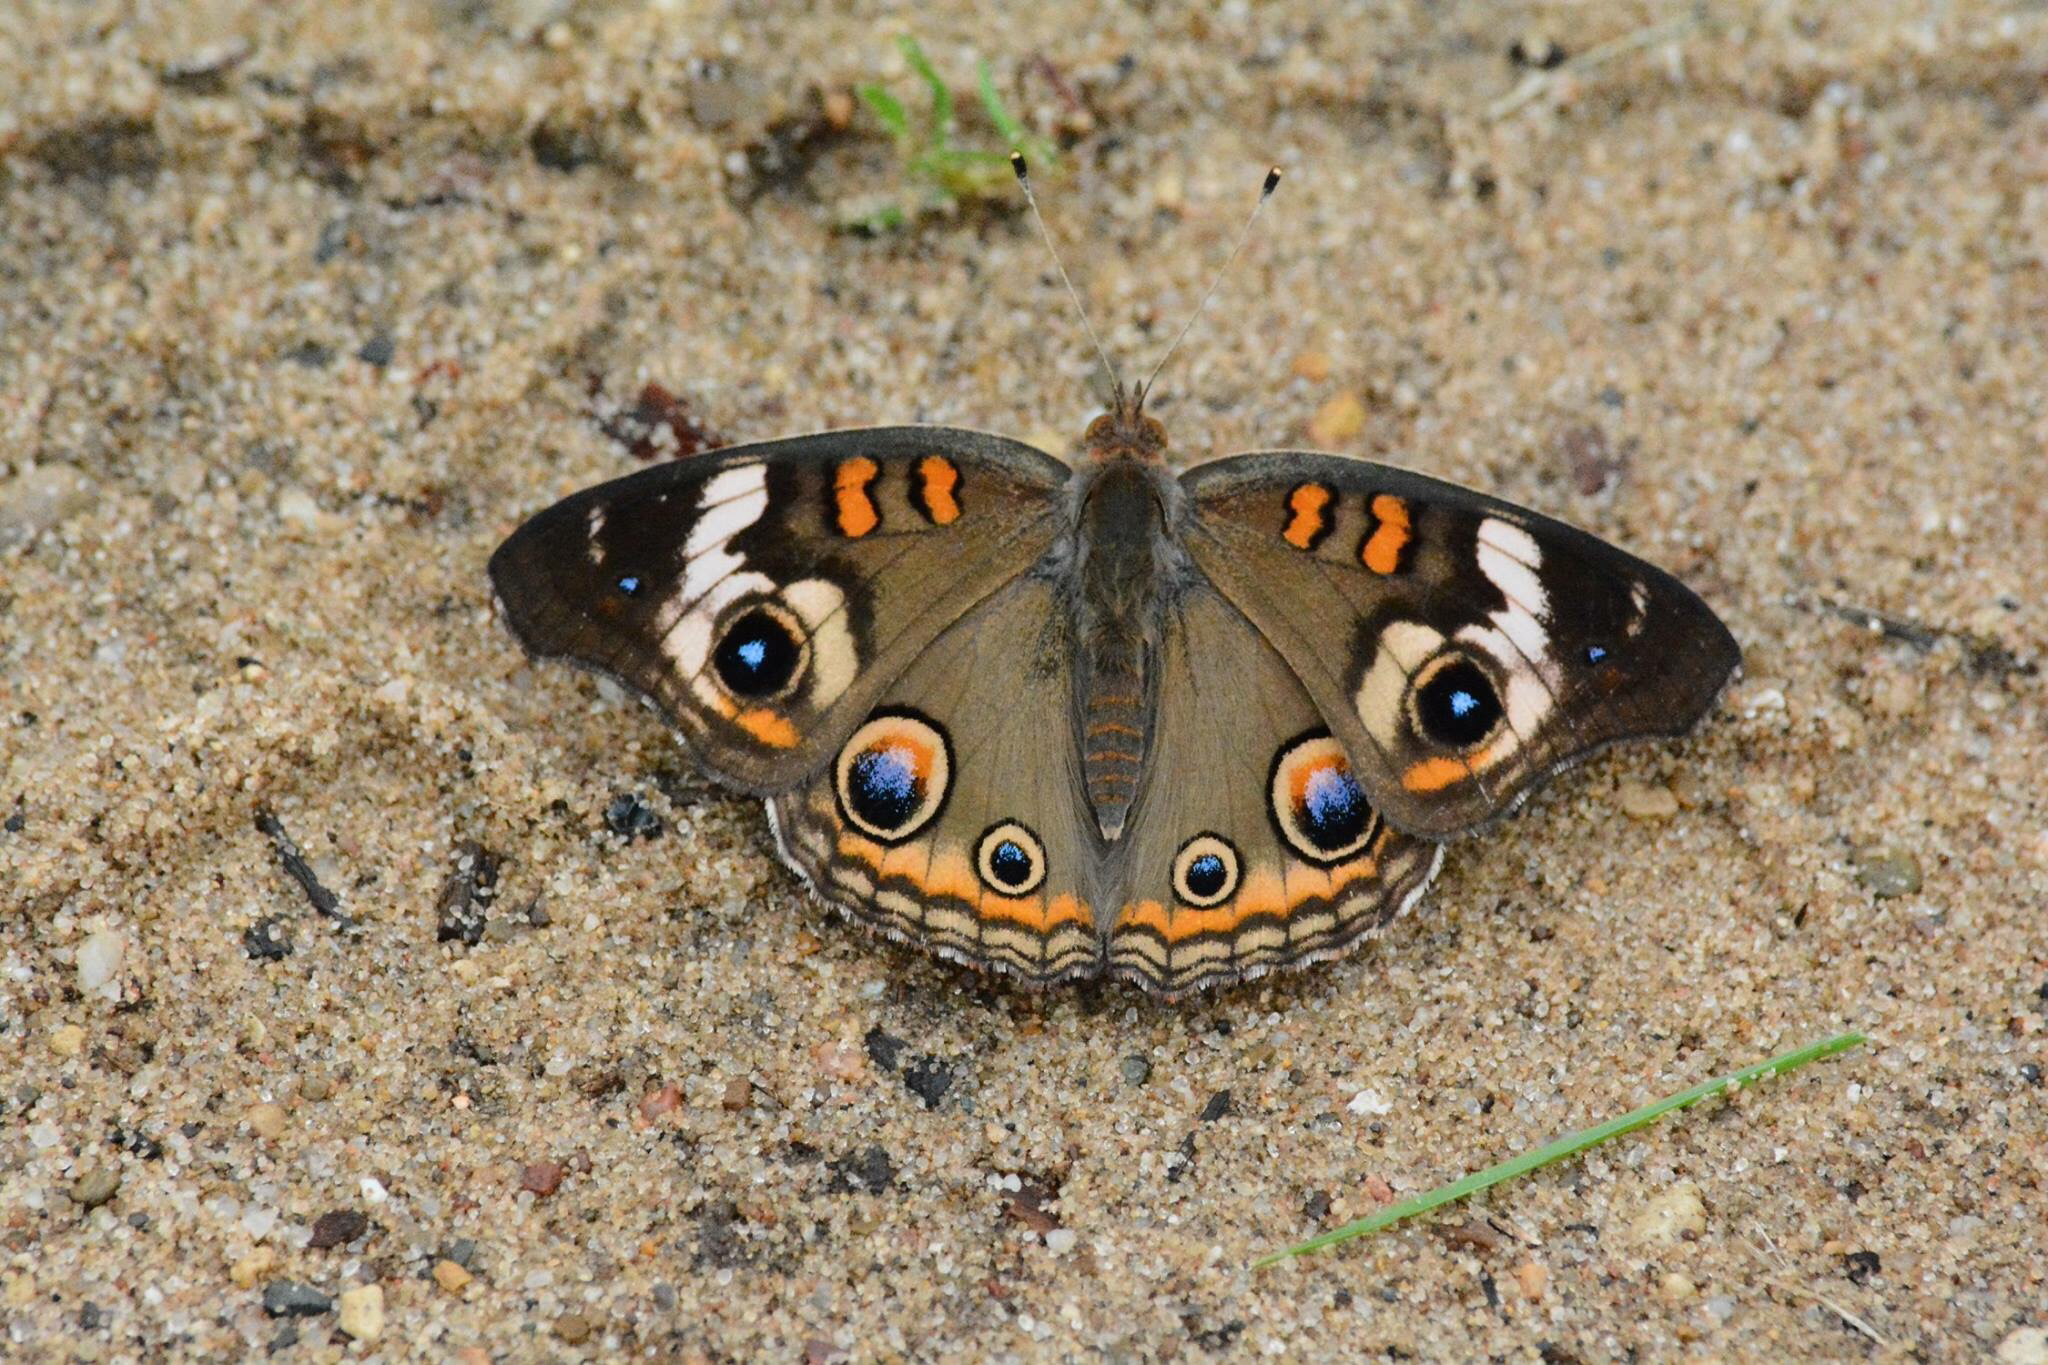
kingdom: Animalia
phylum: Arthropoda
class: Insecta
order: Lepidoptera
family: Nymphalidae
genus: Junonia
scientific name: Junonia coenia
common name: Common buckeye
